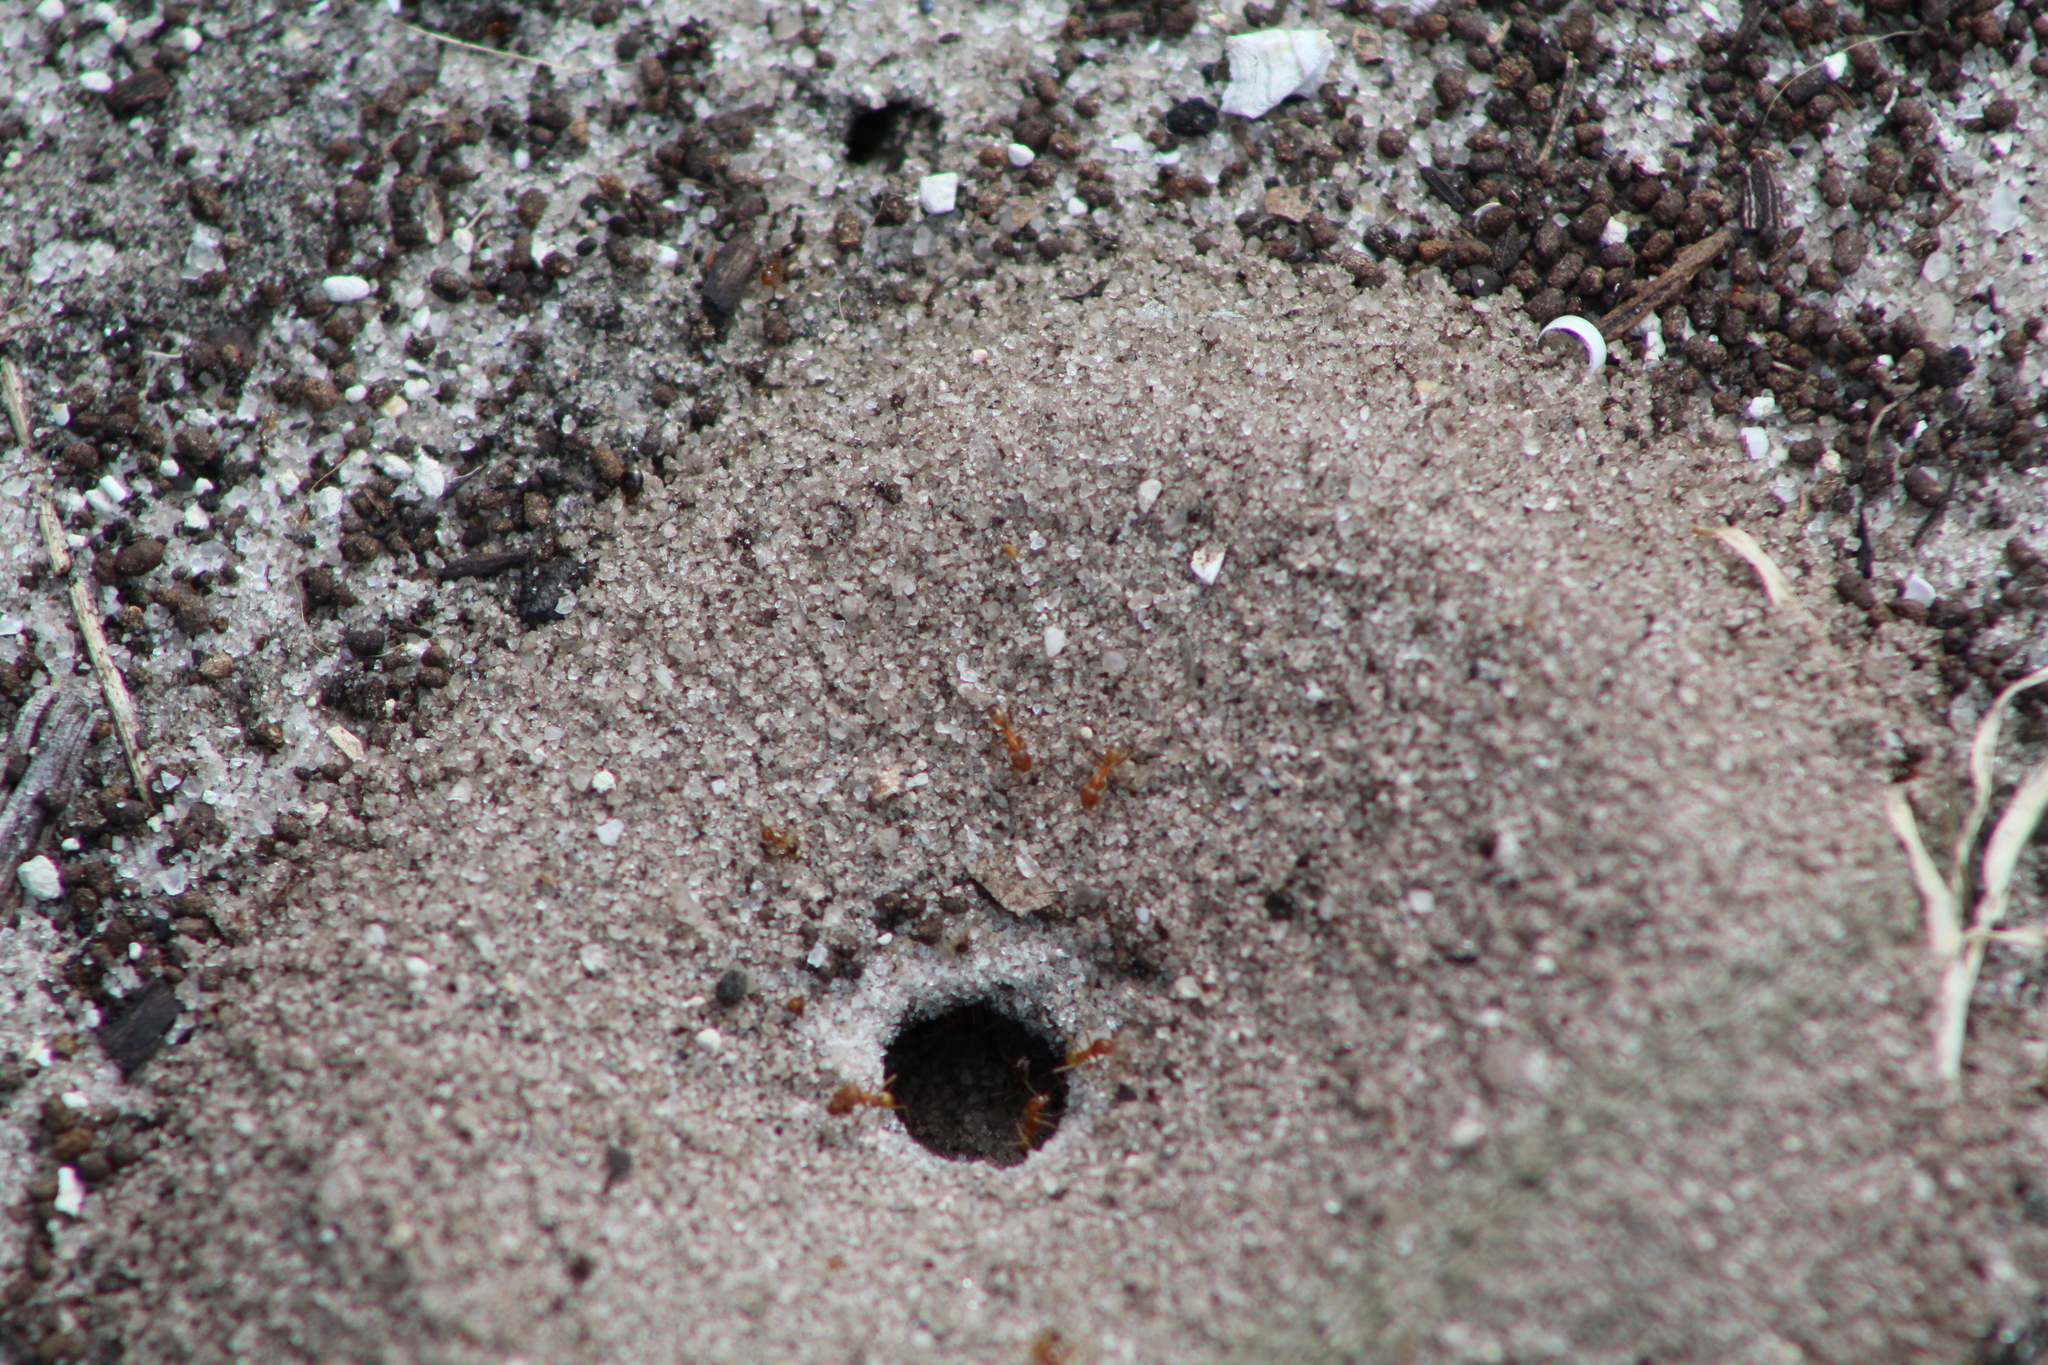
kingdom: Animalia
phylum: Arthropoda
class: Insecta
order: Hymenoptera
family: Formicidae
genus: Dorymyrmex
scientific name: Dorymyrmex bureni
